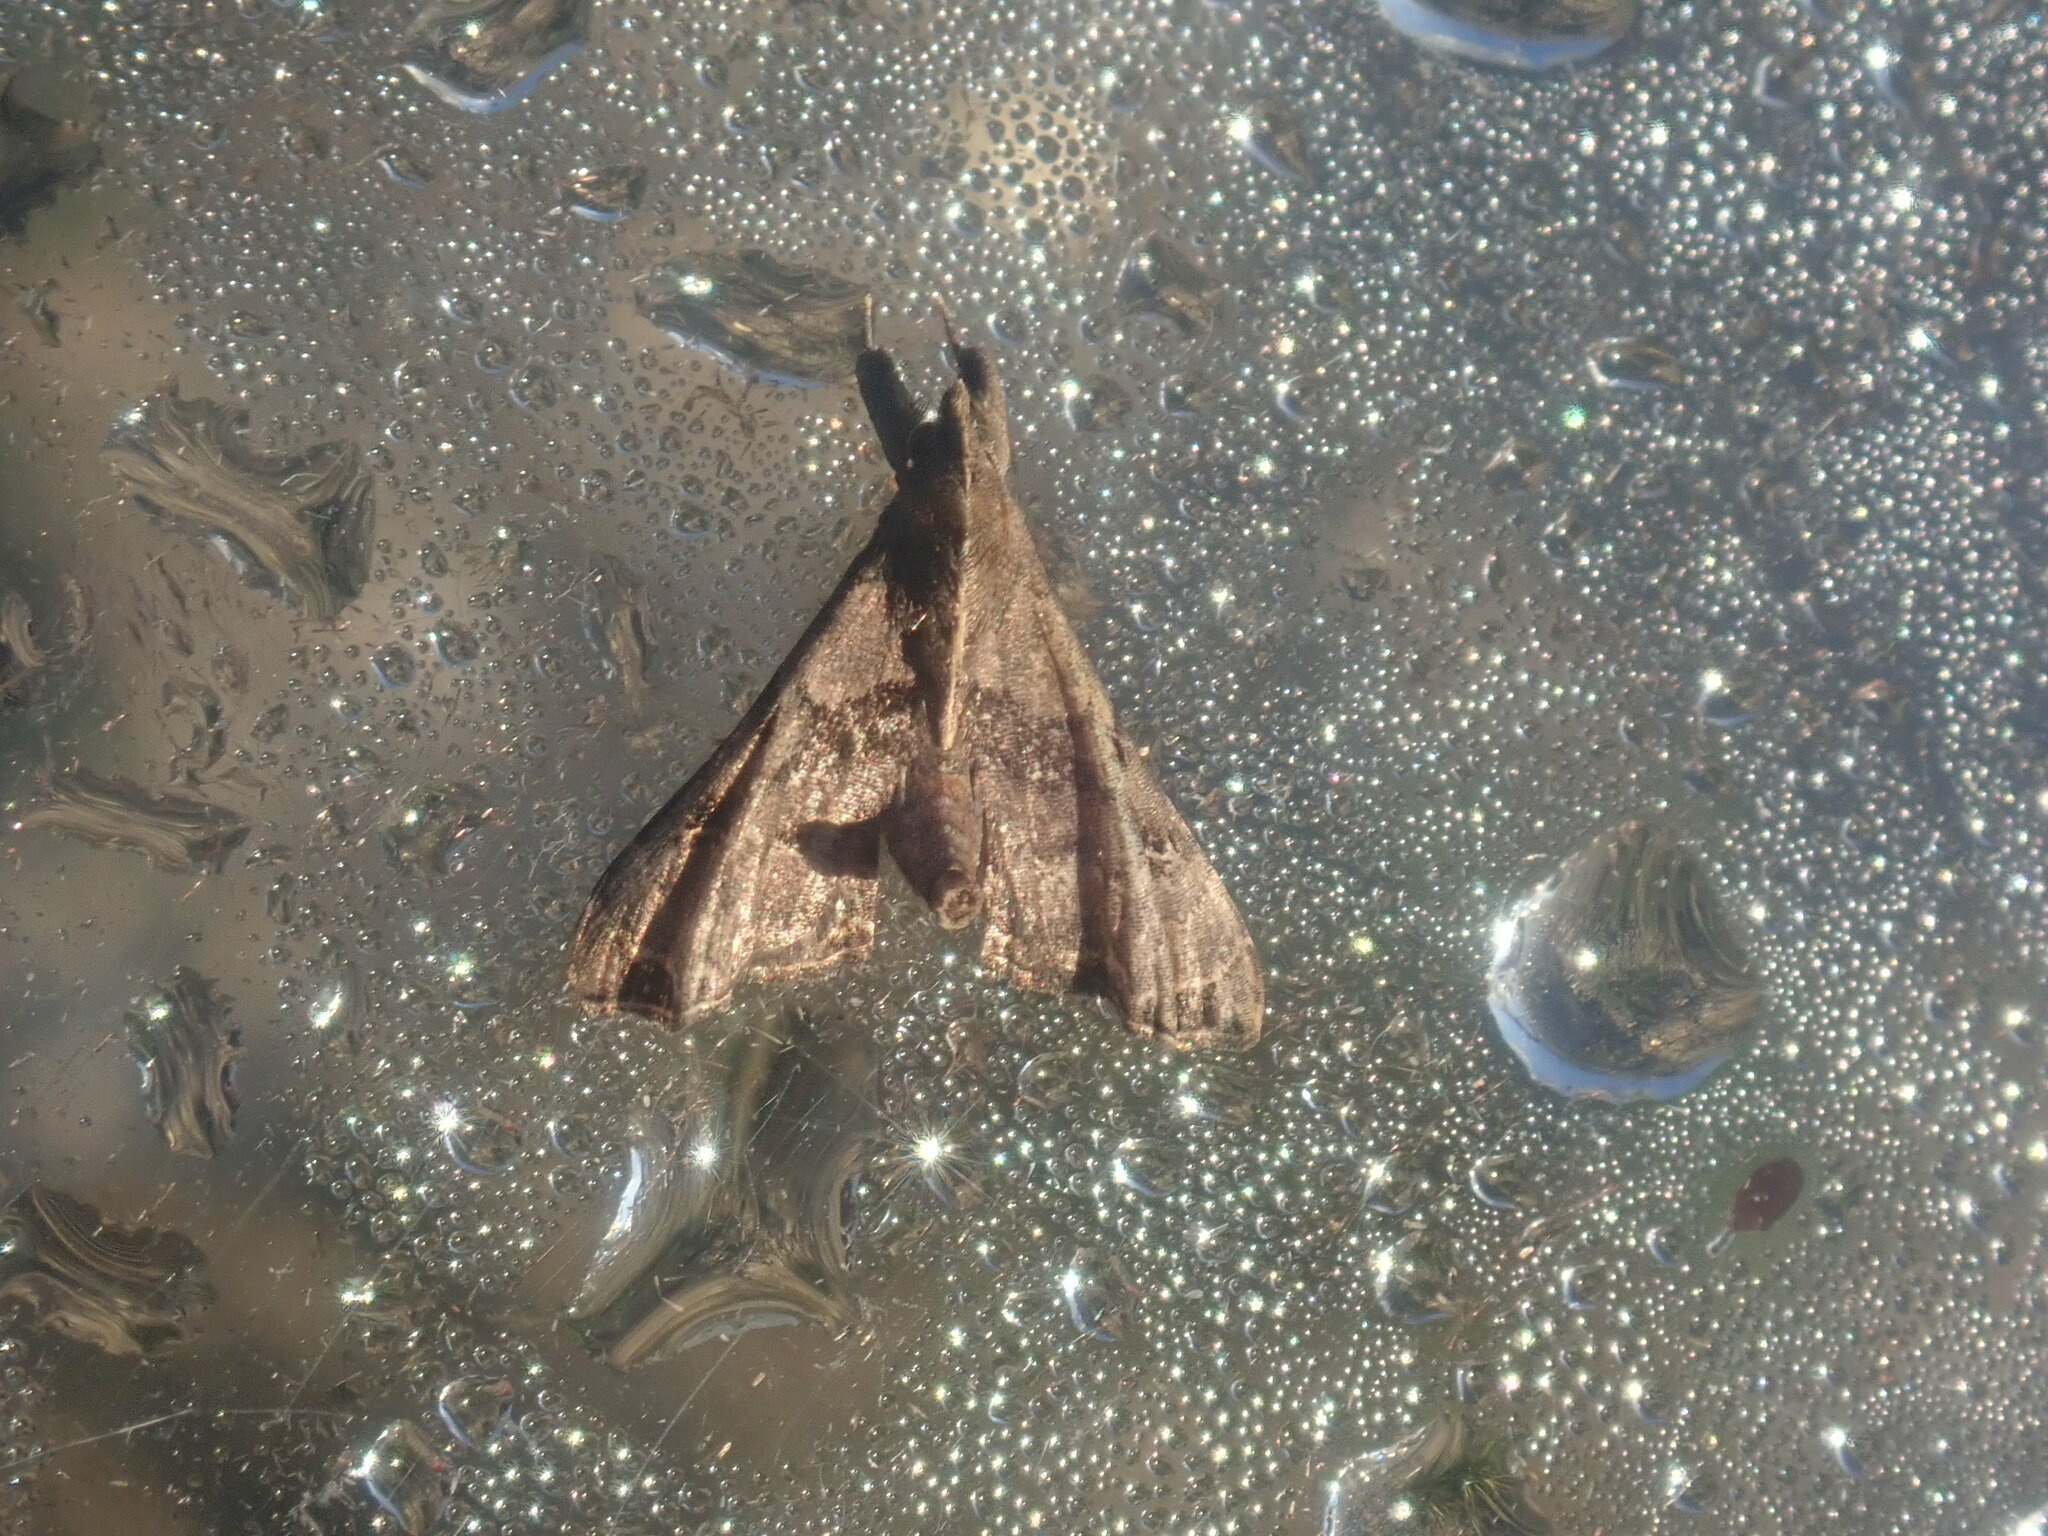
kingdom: Animalia
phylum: Arthropoda
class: Insecta
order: Lepidoptera
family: Erebidae
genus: Palthis
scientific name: Palthis asopialis
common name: Faint-spotted palthis moth
